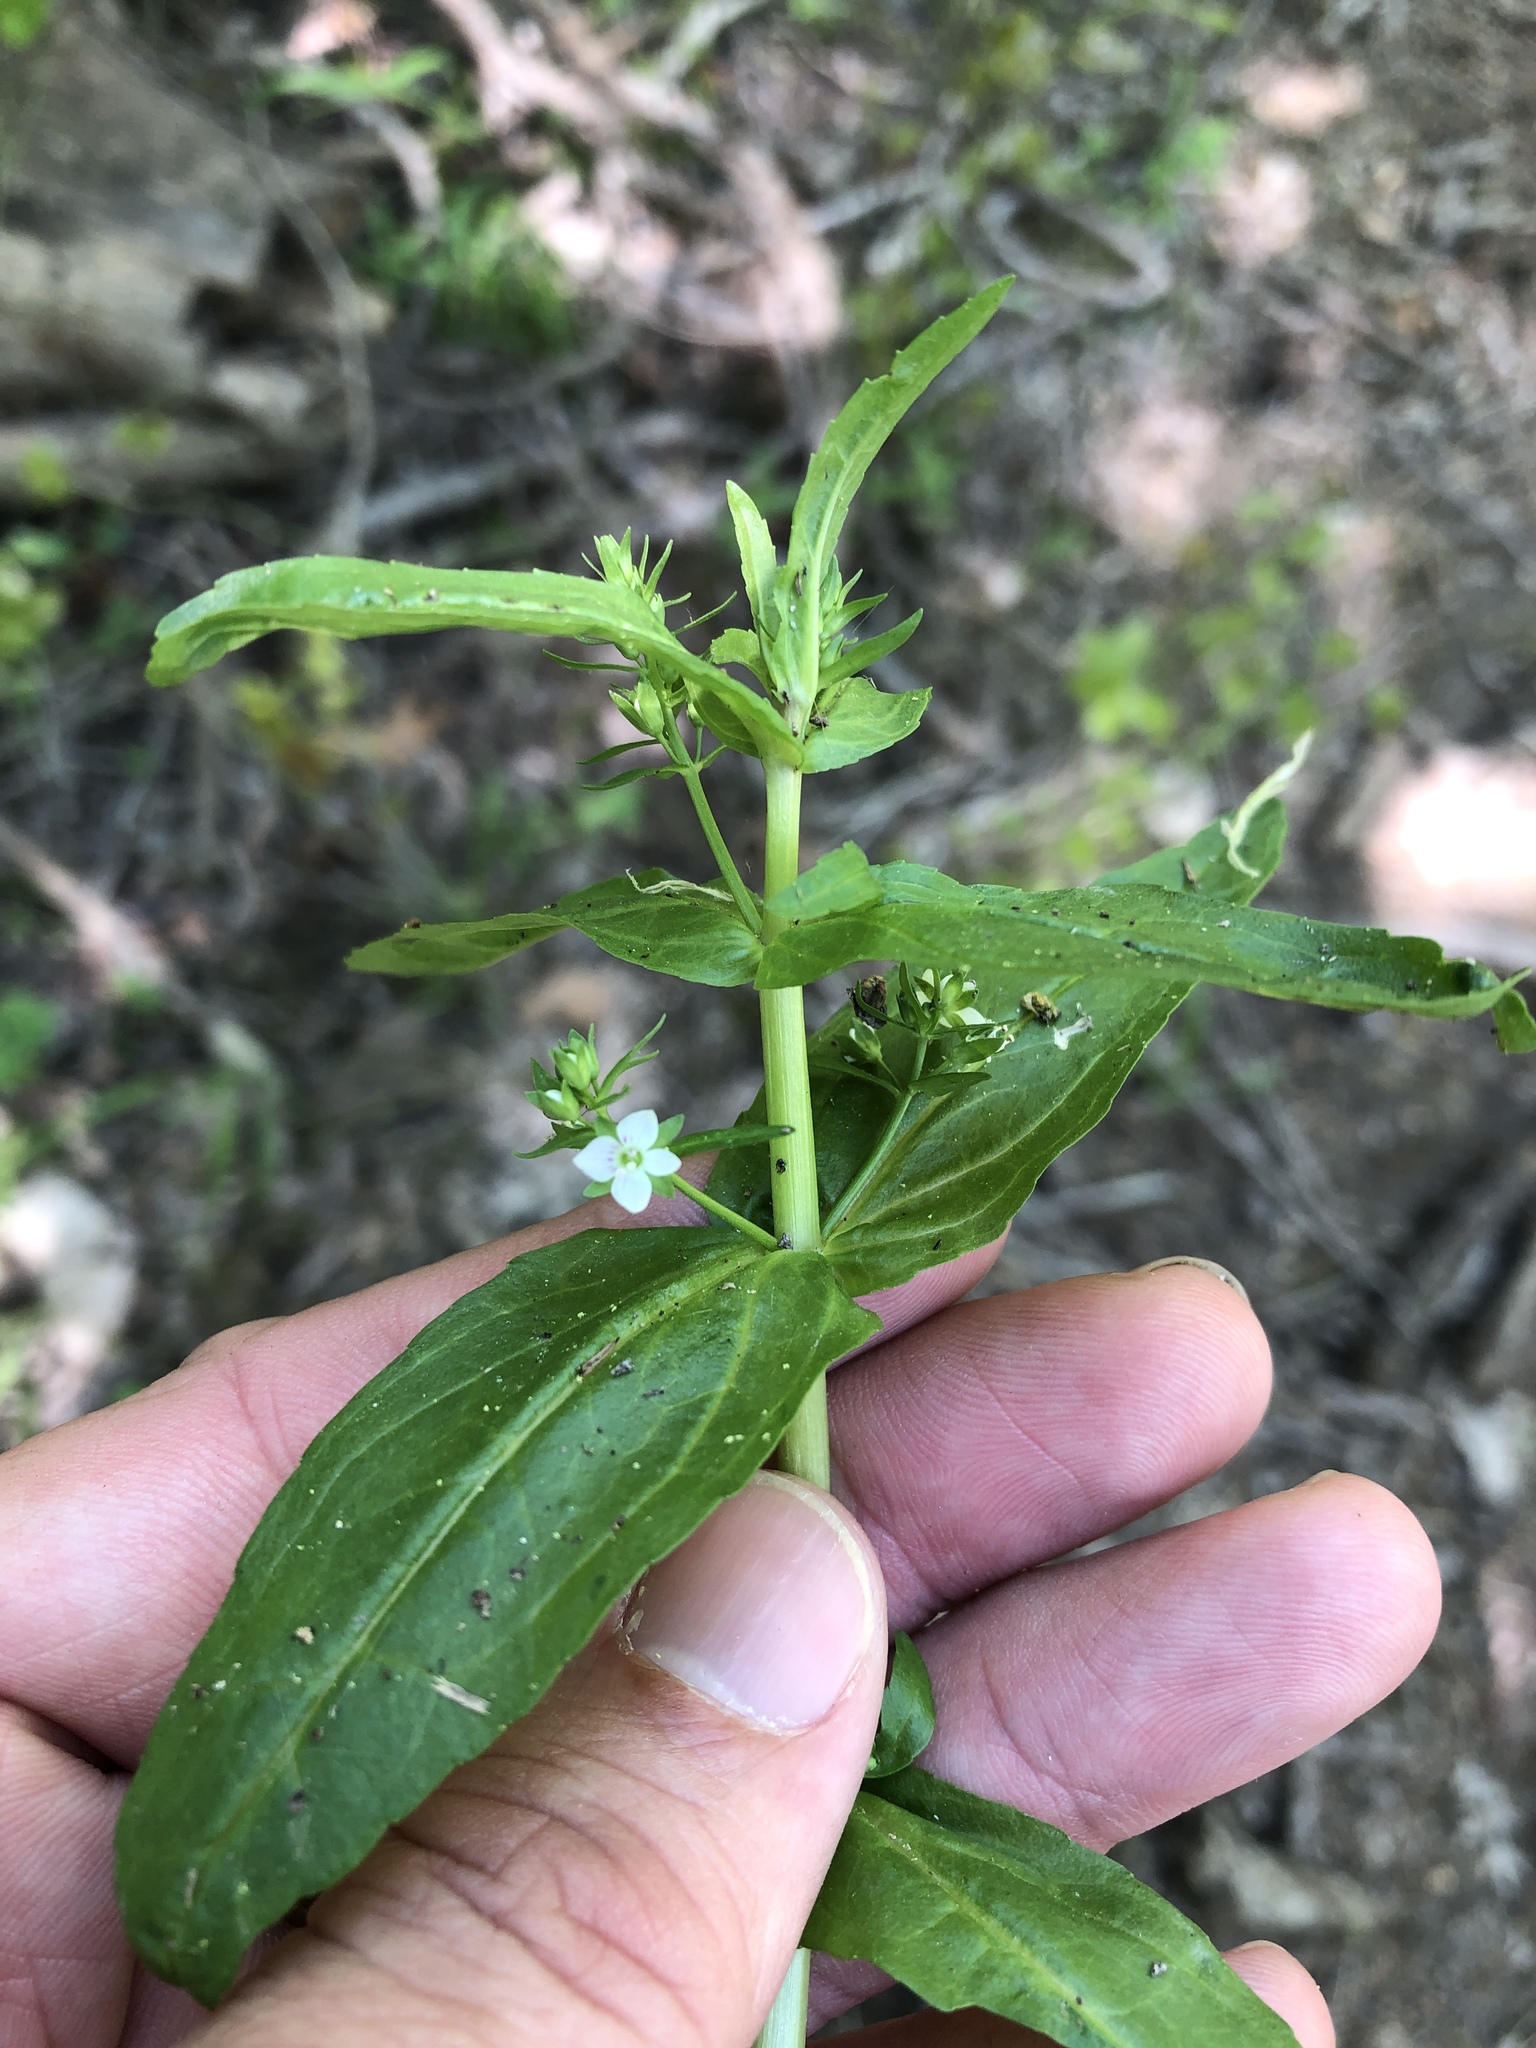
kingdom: Plantae
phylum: Tracheophyta
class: Magnoliopsida
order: Lamiales
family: Plantaginaceae
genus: Veronica
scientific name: Veronica anagallis-aquatica
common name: Water speedwell
